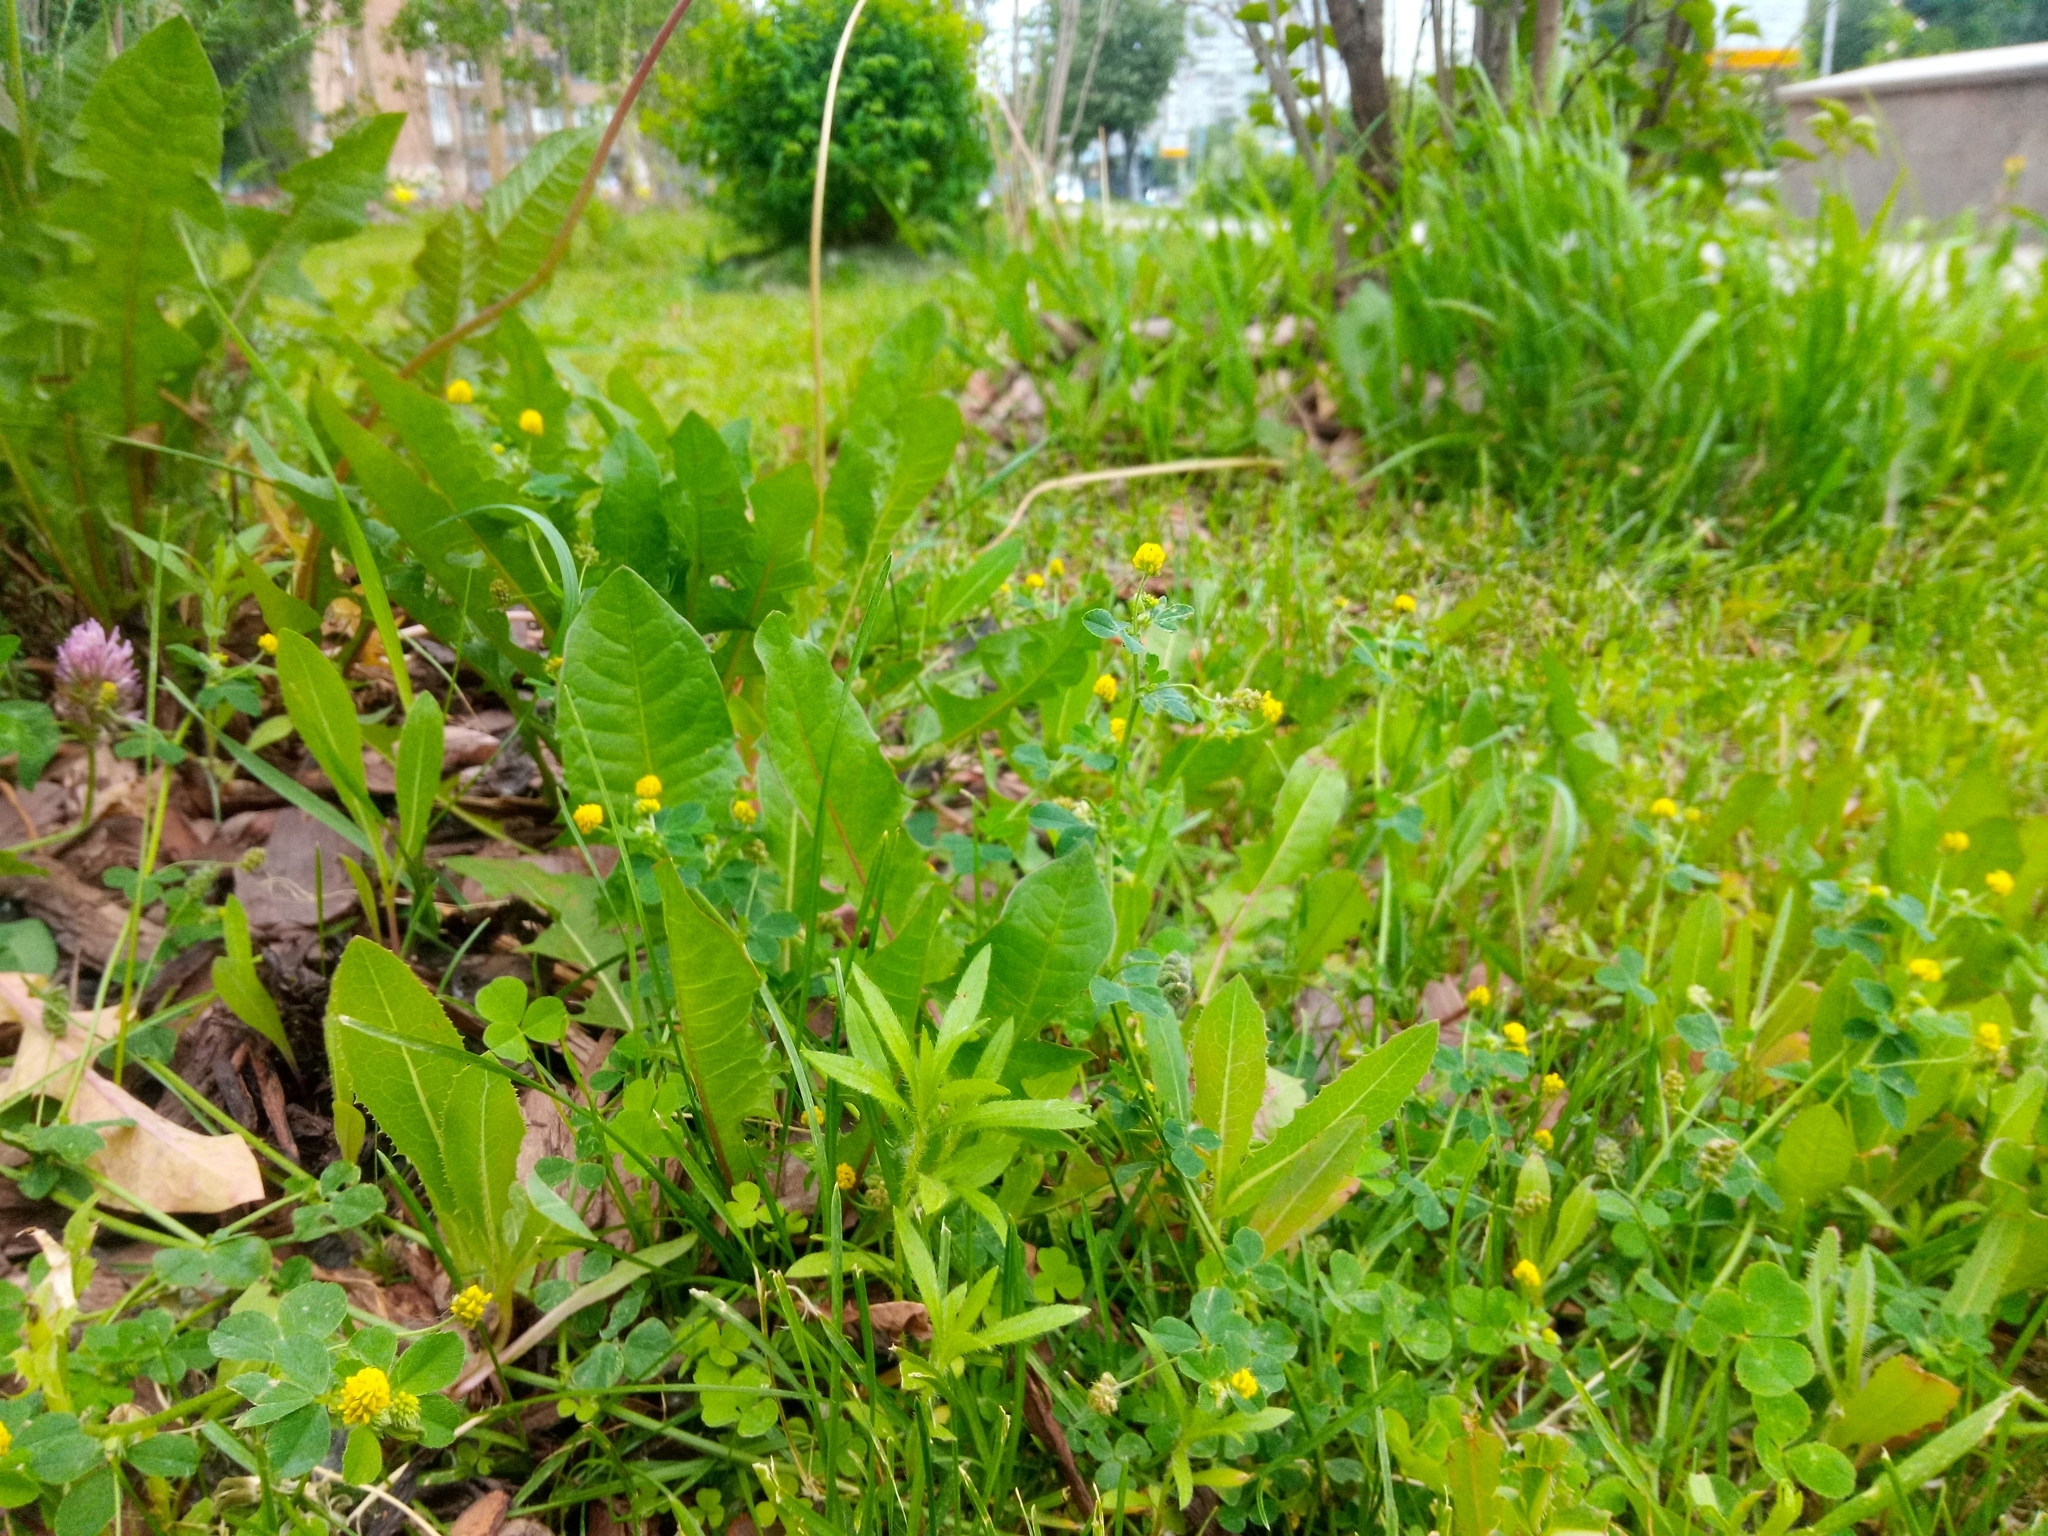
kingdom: Plantae
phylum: Tracheophyta
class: Magnoliopsida
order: Fabales
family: Fabaceae
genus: Medicago
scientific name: Medicago lupulina
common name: Black medick
